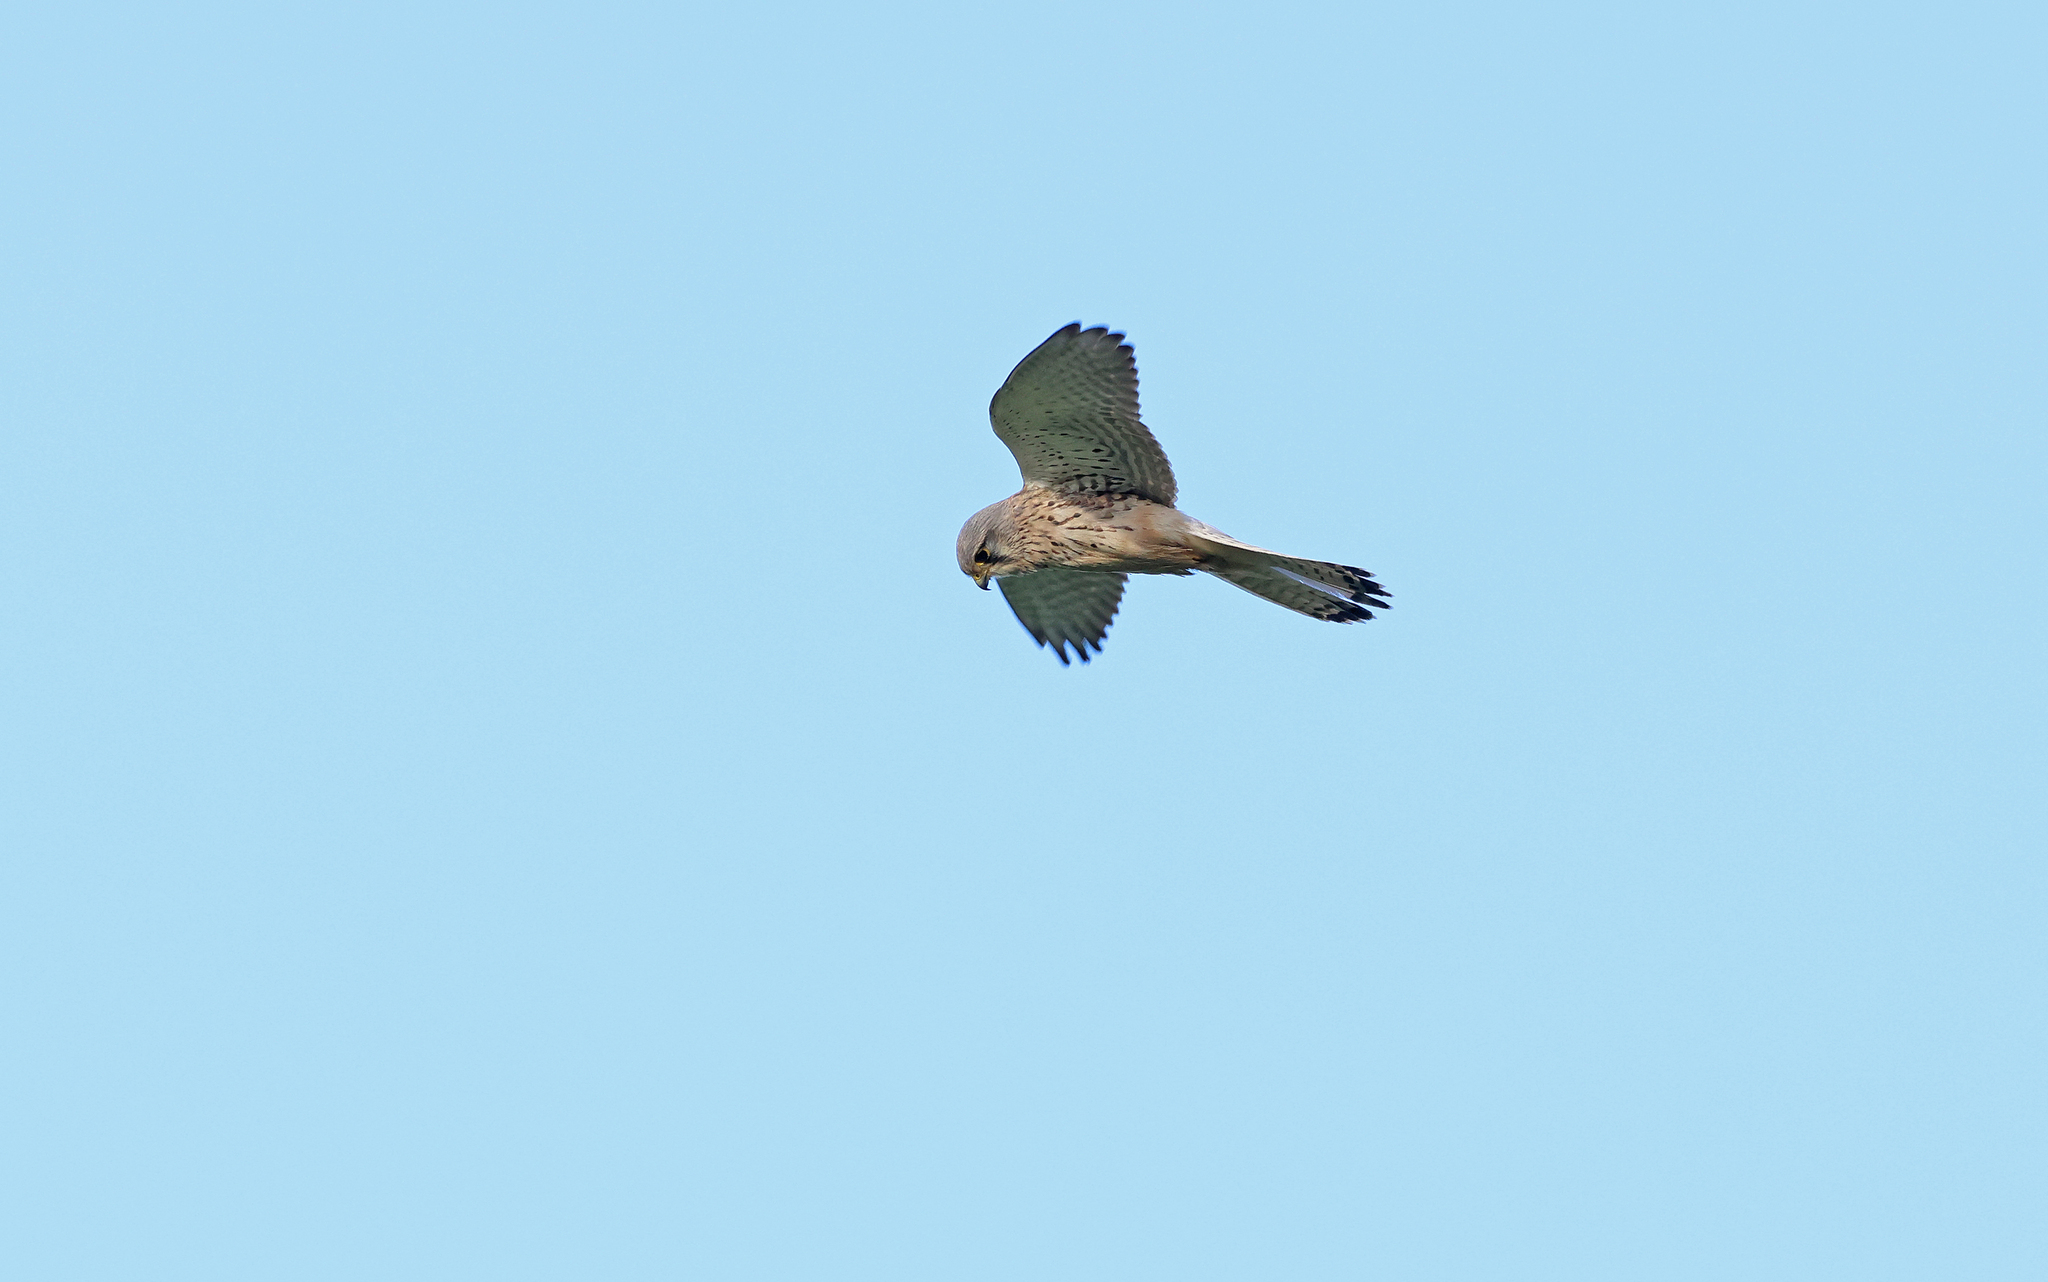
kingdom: Animalia
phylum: Chordata
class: Aves
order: Falconiformes
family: Falconidae
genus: Falco
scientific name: Falco tinnunculus
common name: Common kestrel
